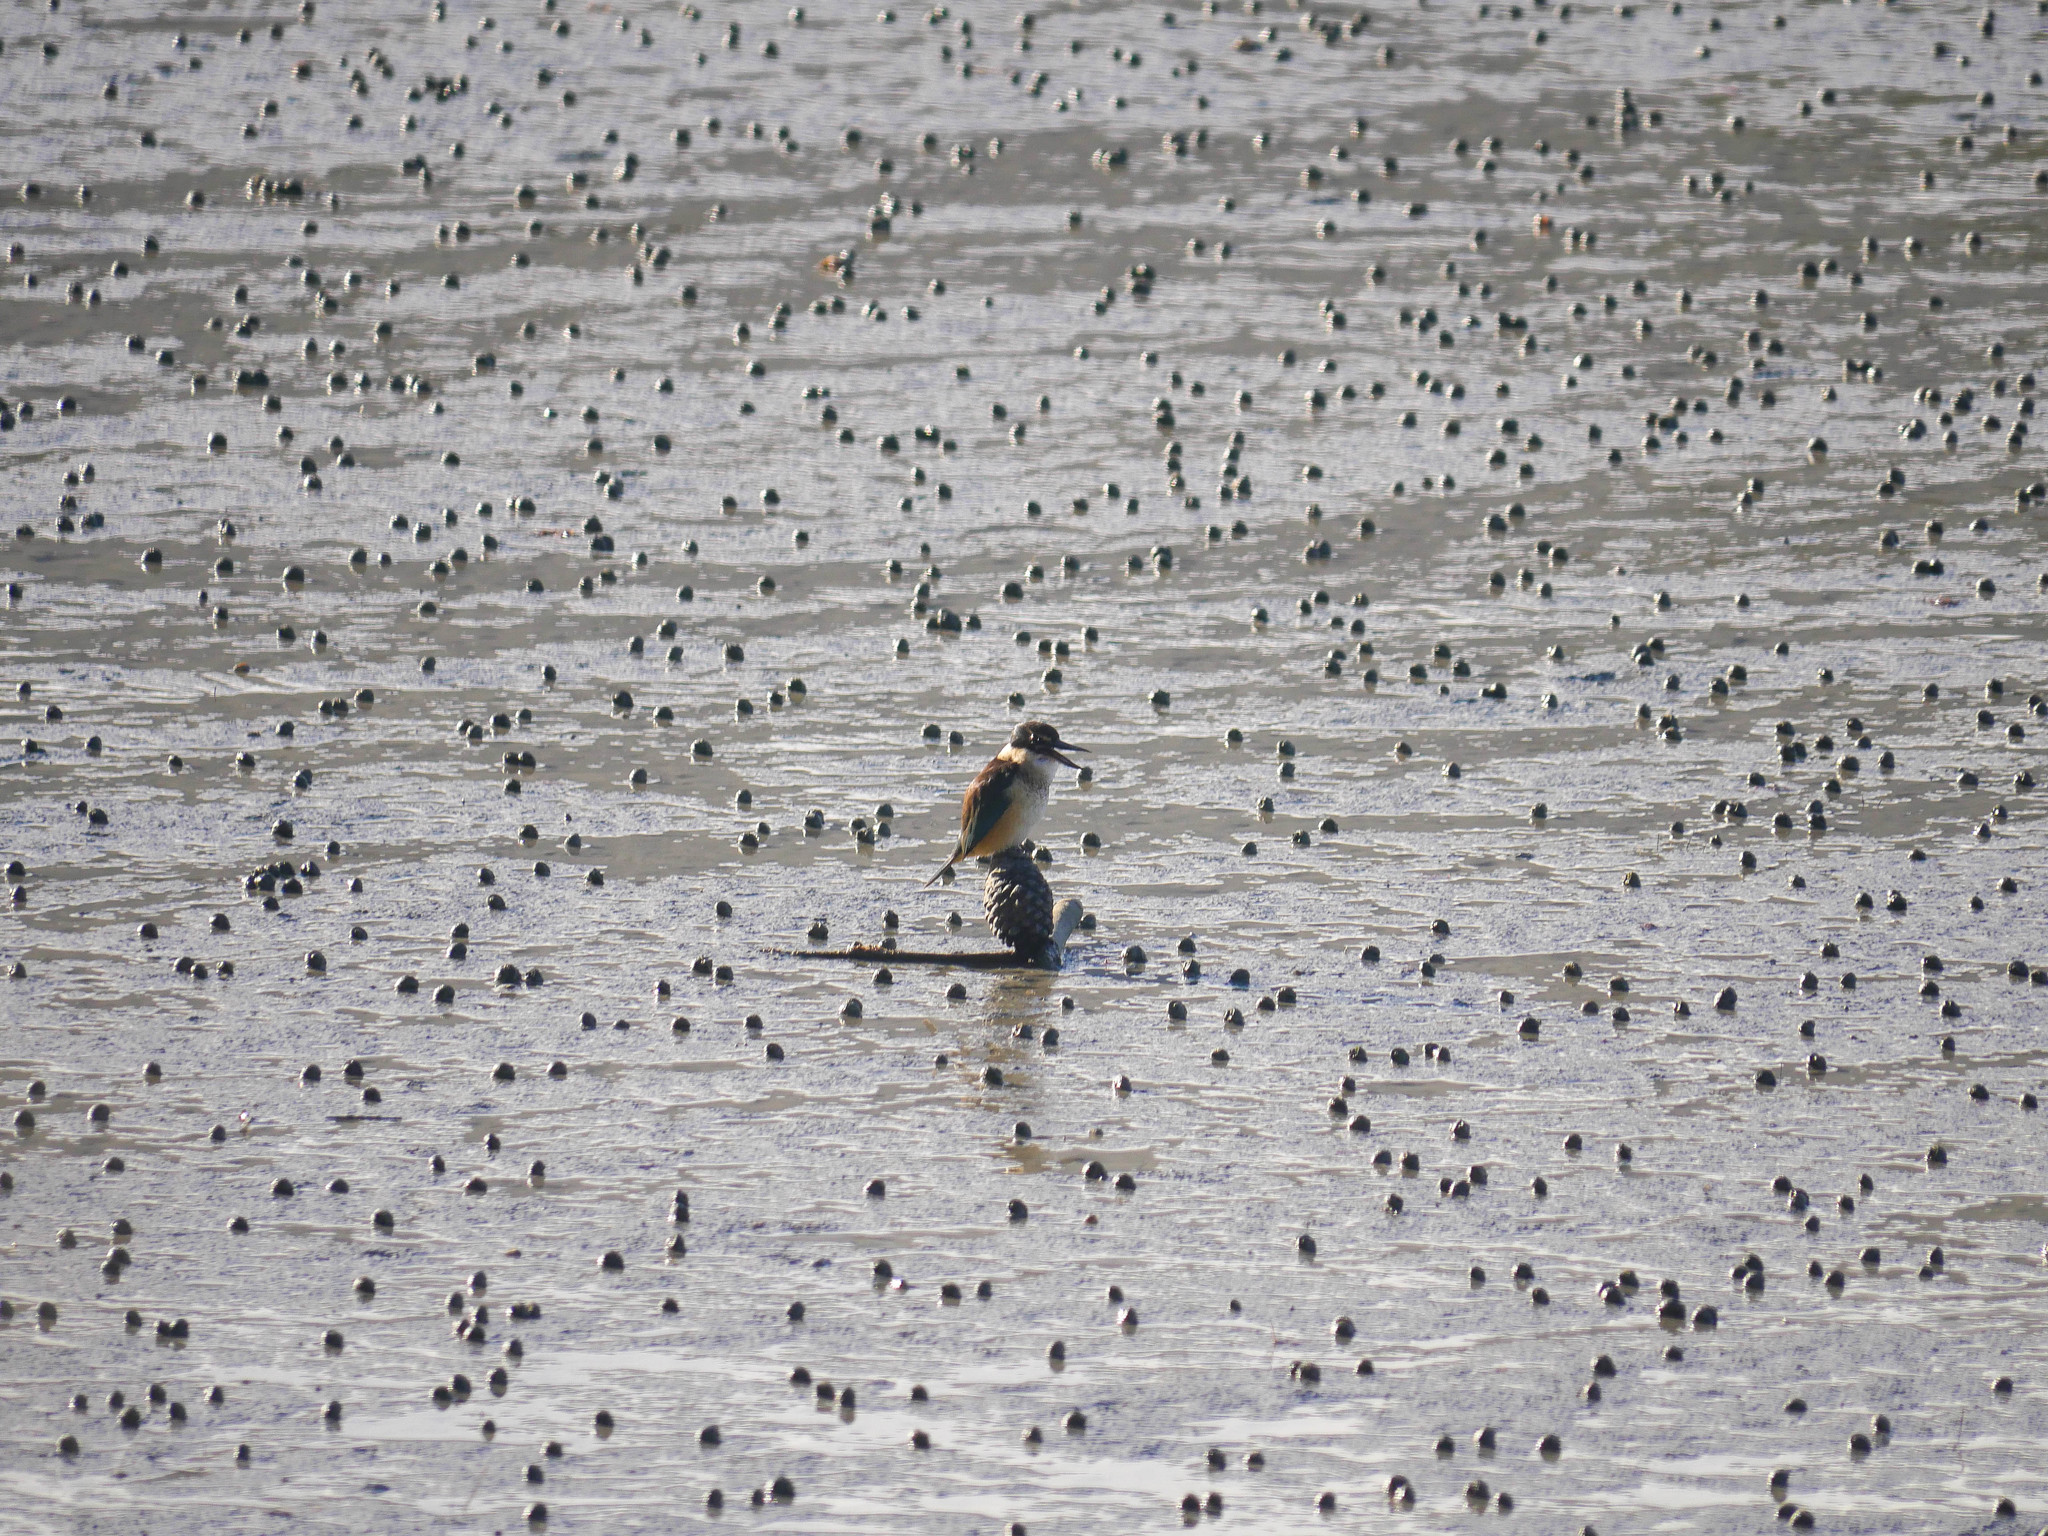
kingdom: Animalia
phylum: Chordata
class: Aves
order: Coraciiformes
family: Alcedinidae
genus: Todiramphus
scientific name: Todiramphus sanctus
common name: Sacred kingfisher
